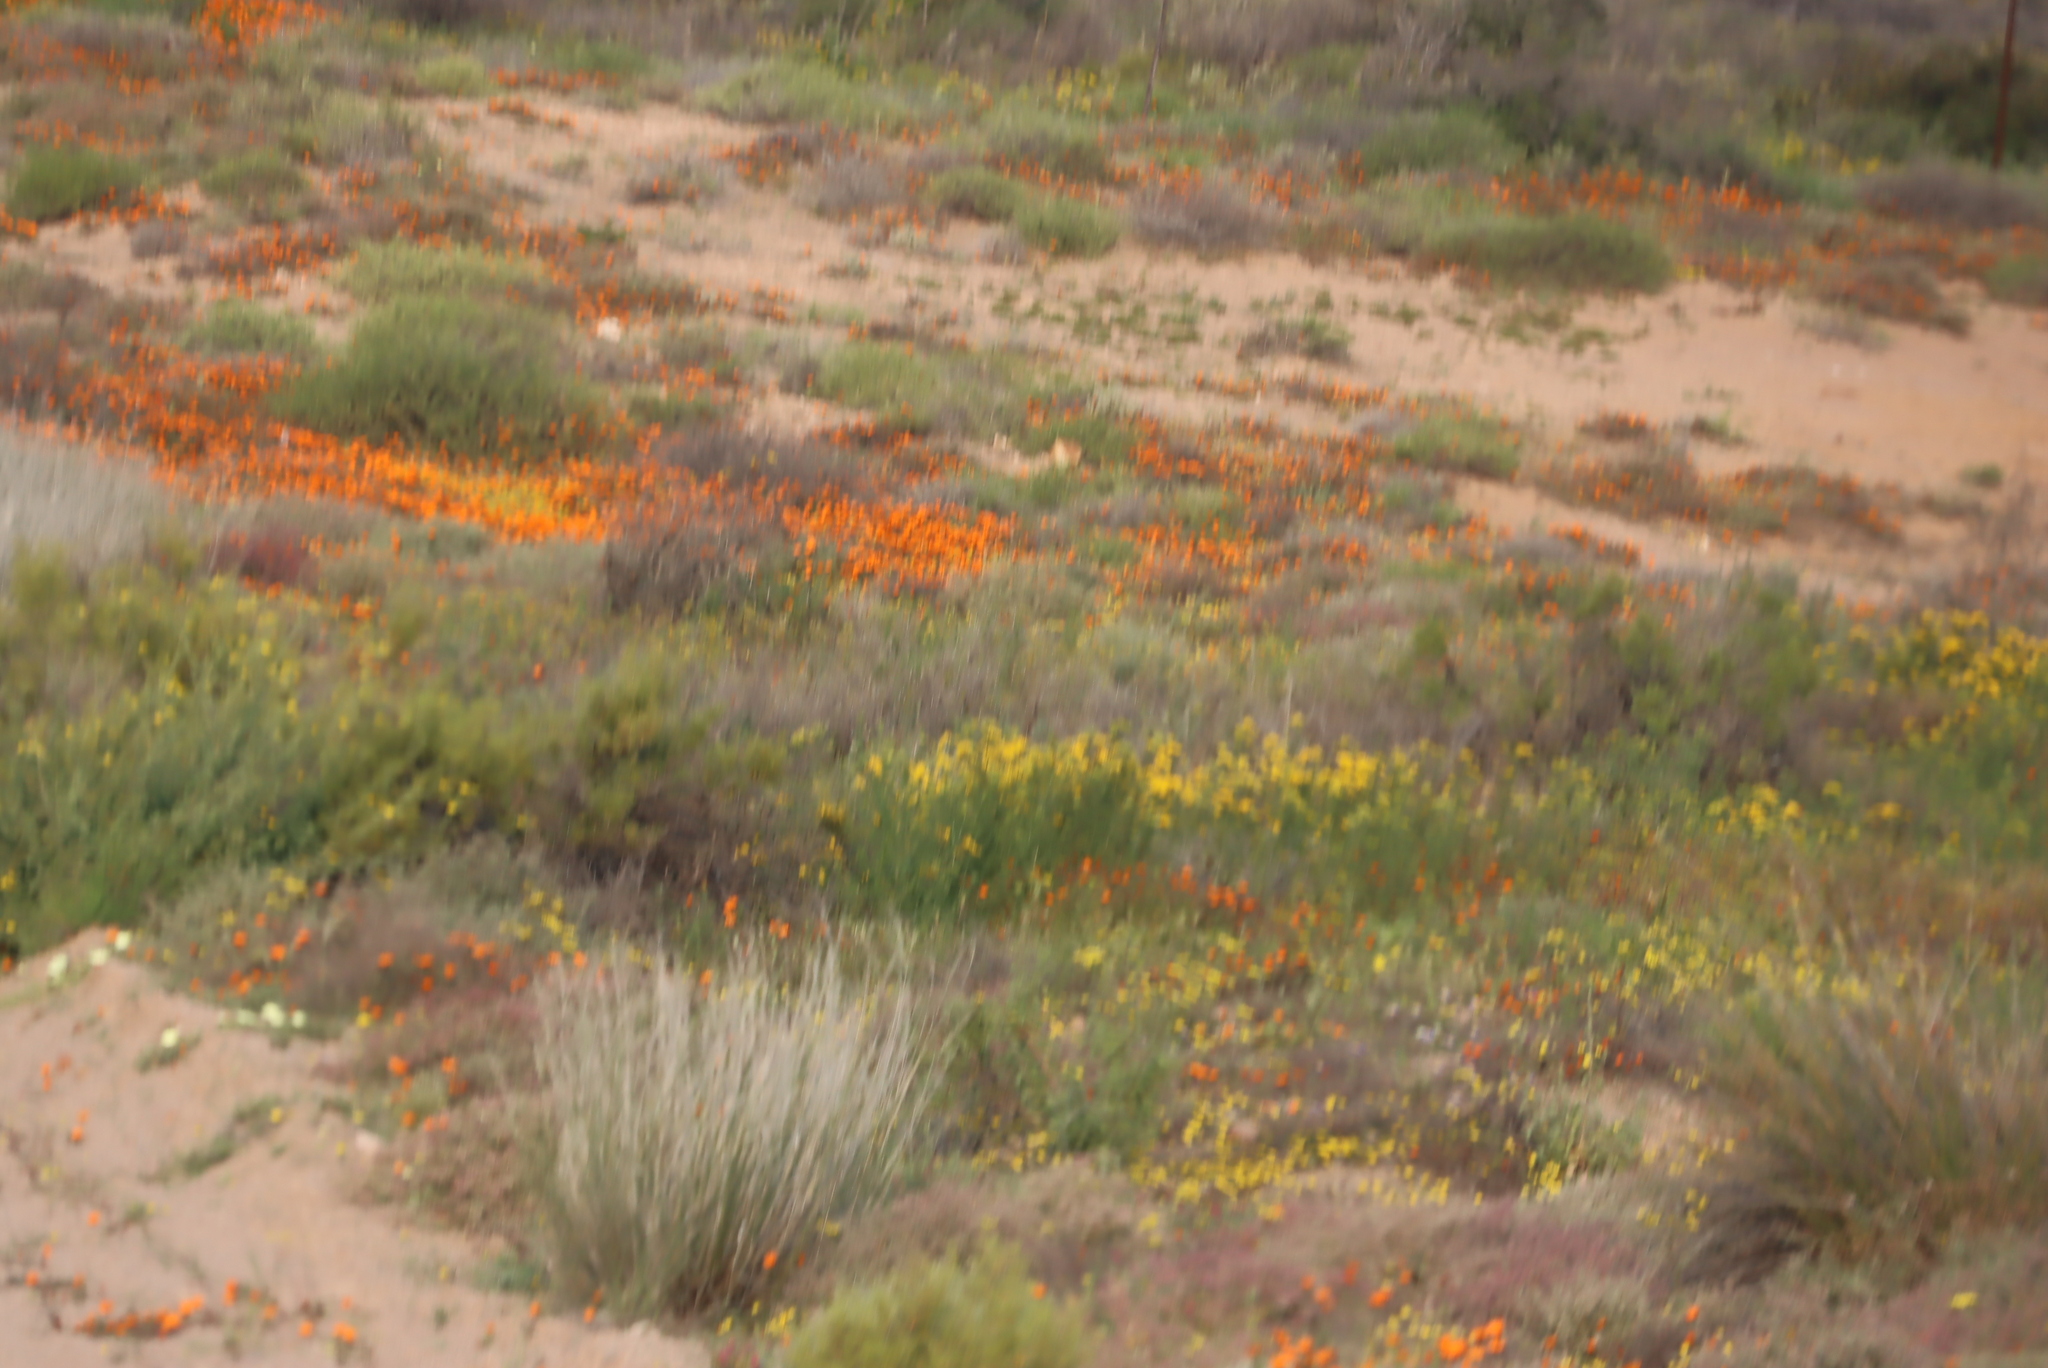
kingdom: Plantae
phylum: Tracheophyta
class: Magnoliopsida
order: Asterales
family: Asteraceae
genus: Dimorphotheca
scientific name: Dimorphotheca sinuata
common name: Glandular cape marigold
